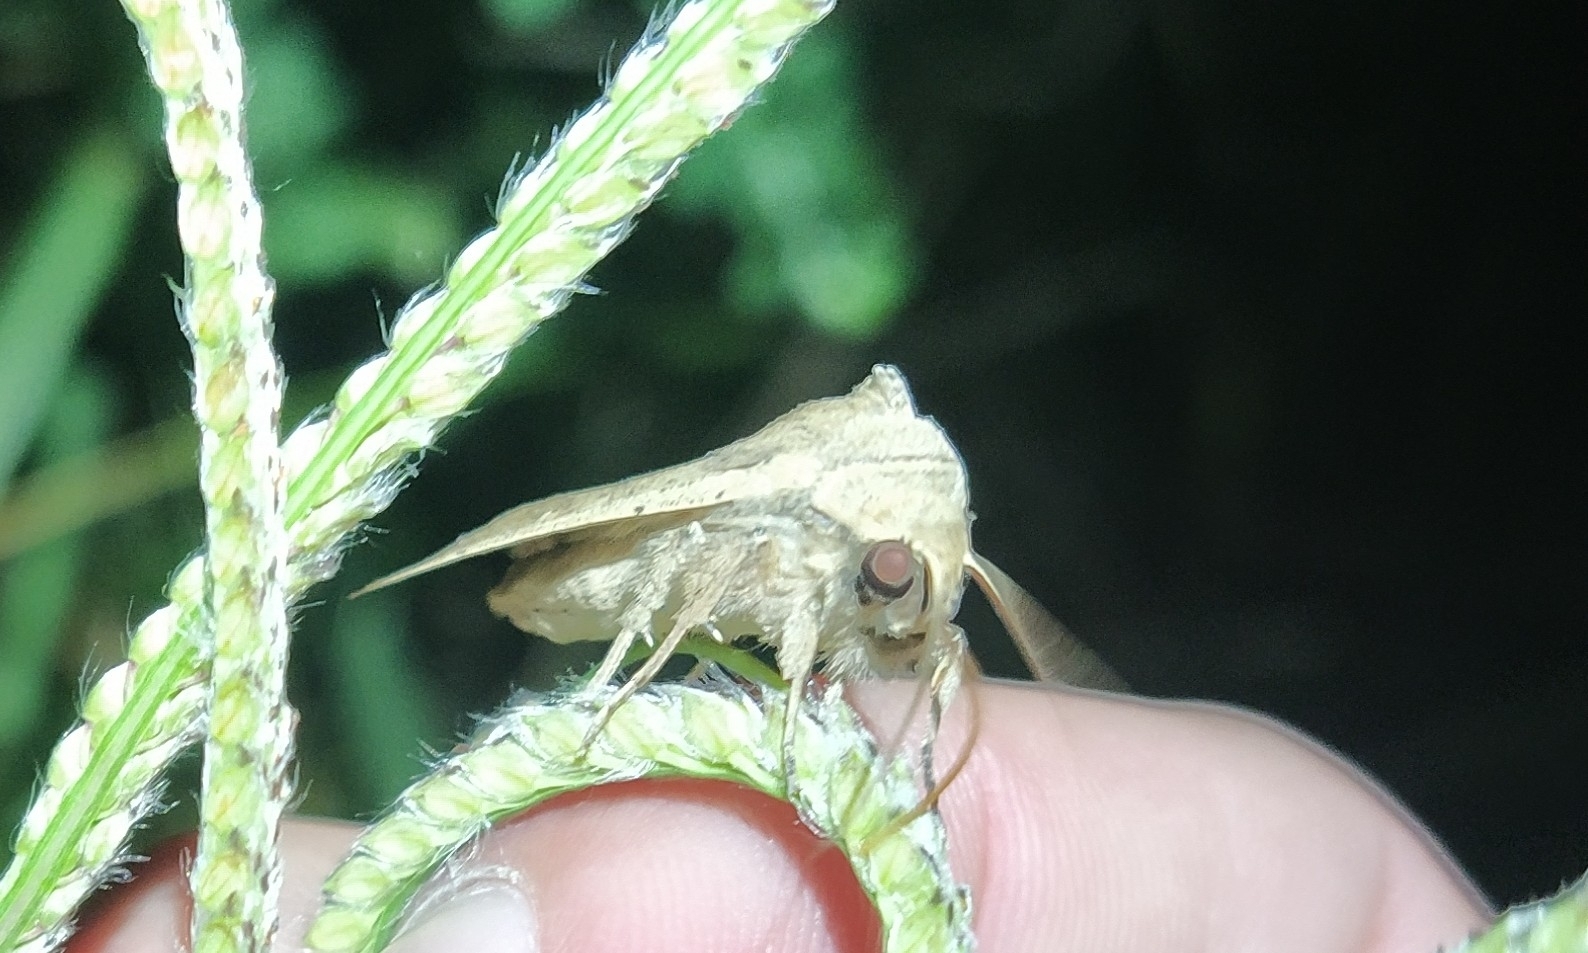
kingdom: Animalia
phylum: Arthropoda
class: Insecta
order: Lepidoptera
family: Noctuidae
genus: Mythimna
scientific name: Mythimna separata
